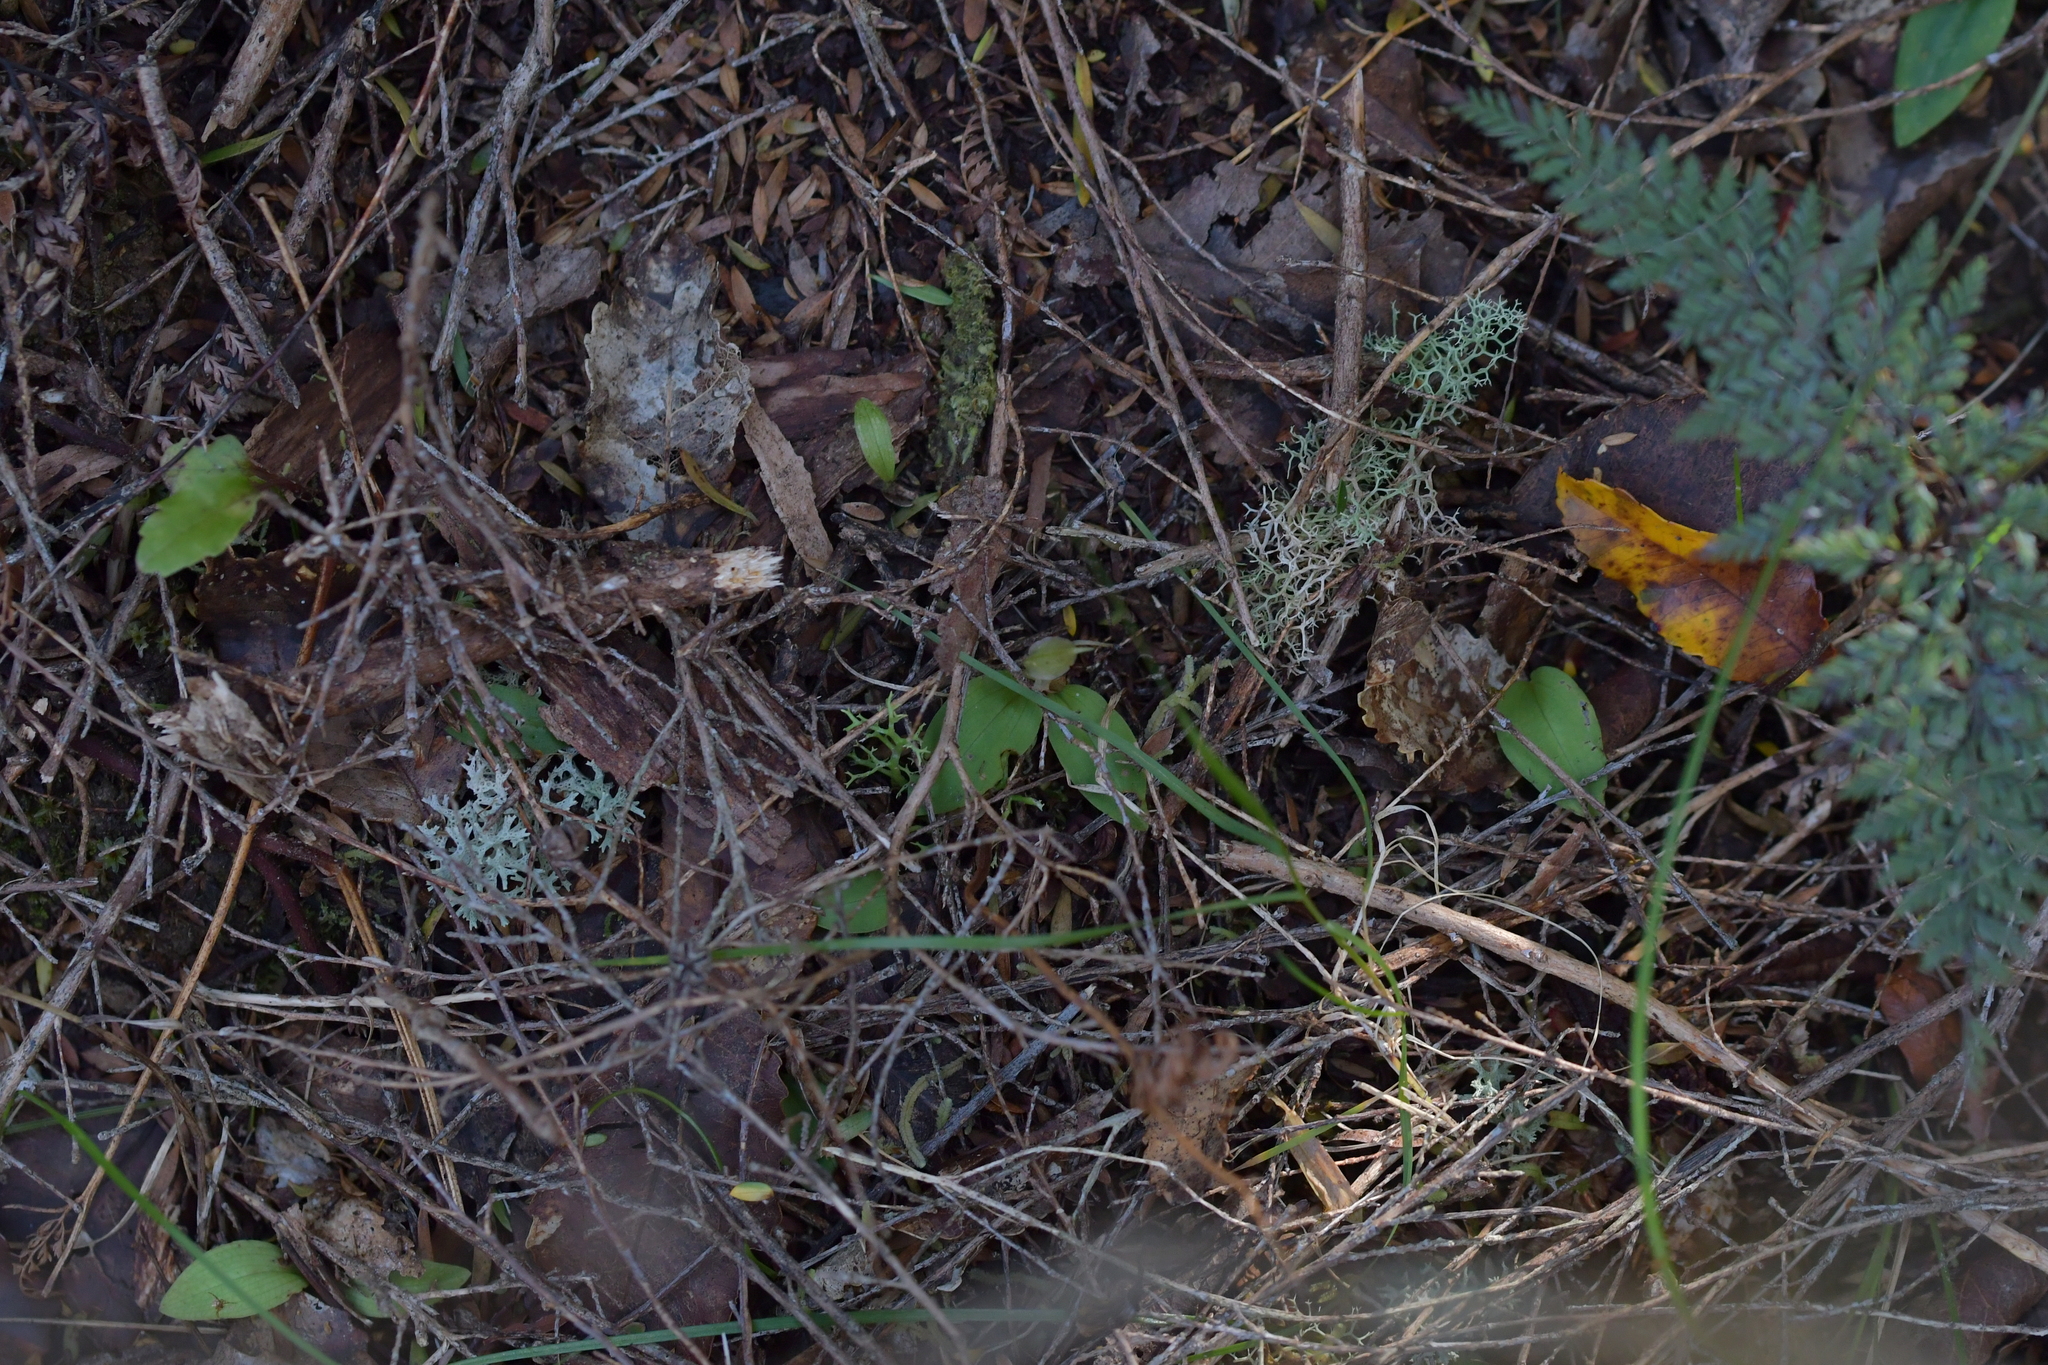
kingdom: Plantae
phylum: Tracheophyta
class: Liliopsida
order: Asparagales
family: Orchidaceae
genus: Chiloglottis
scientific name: Chiloglottis cornuta
